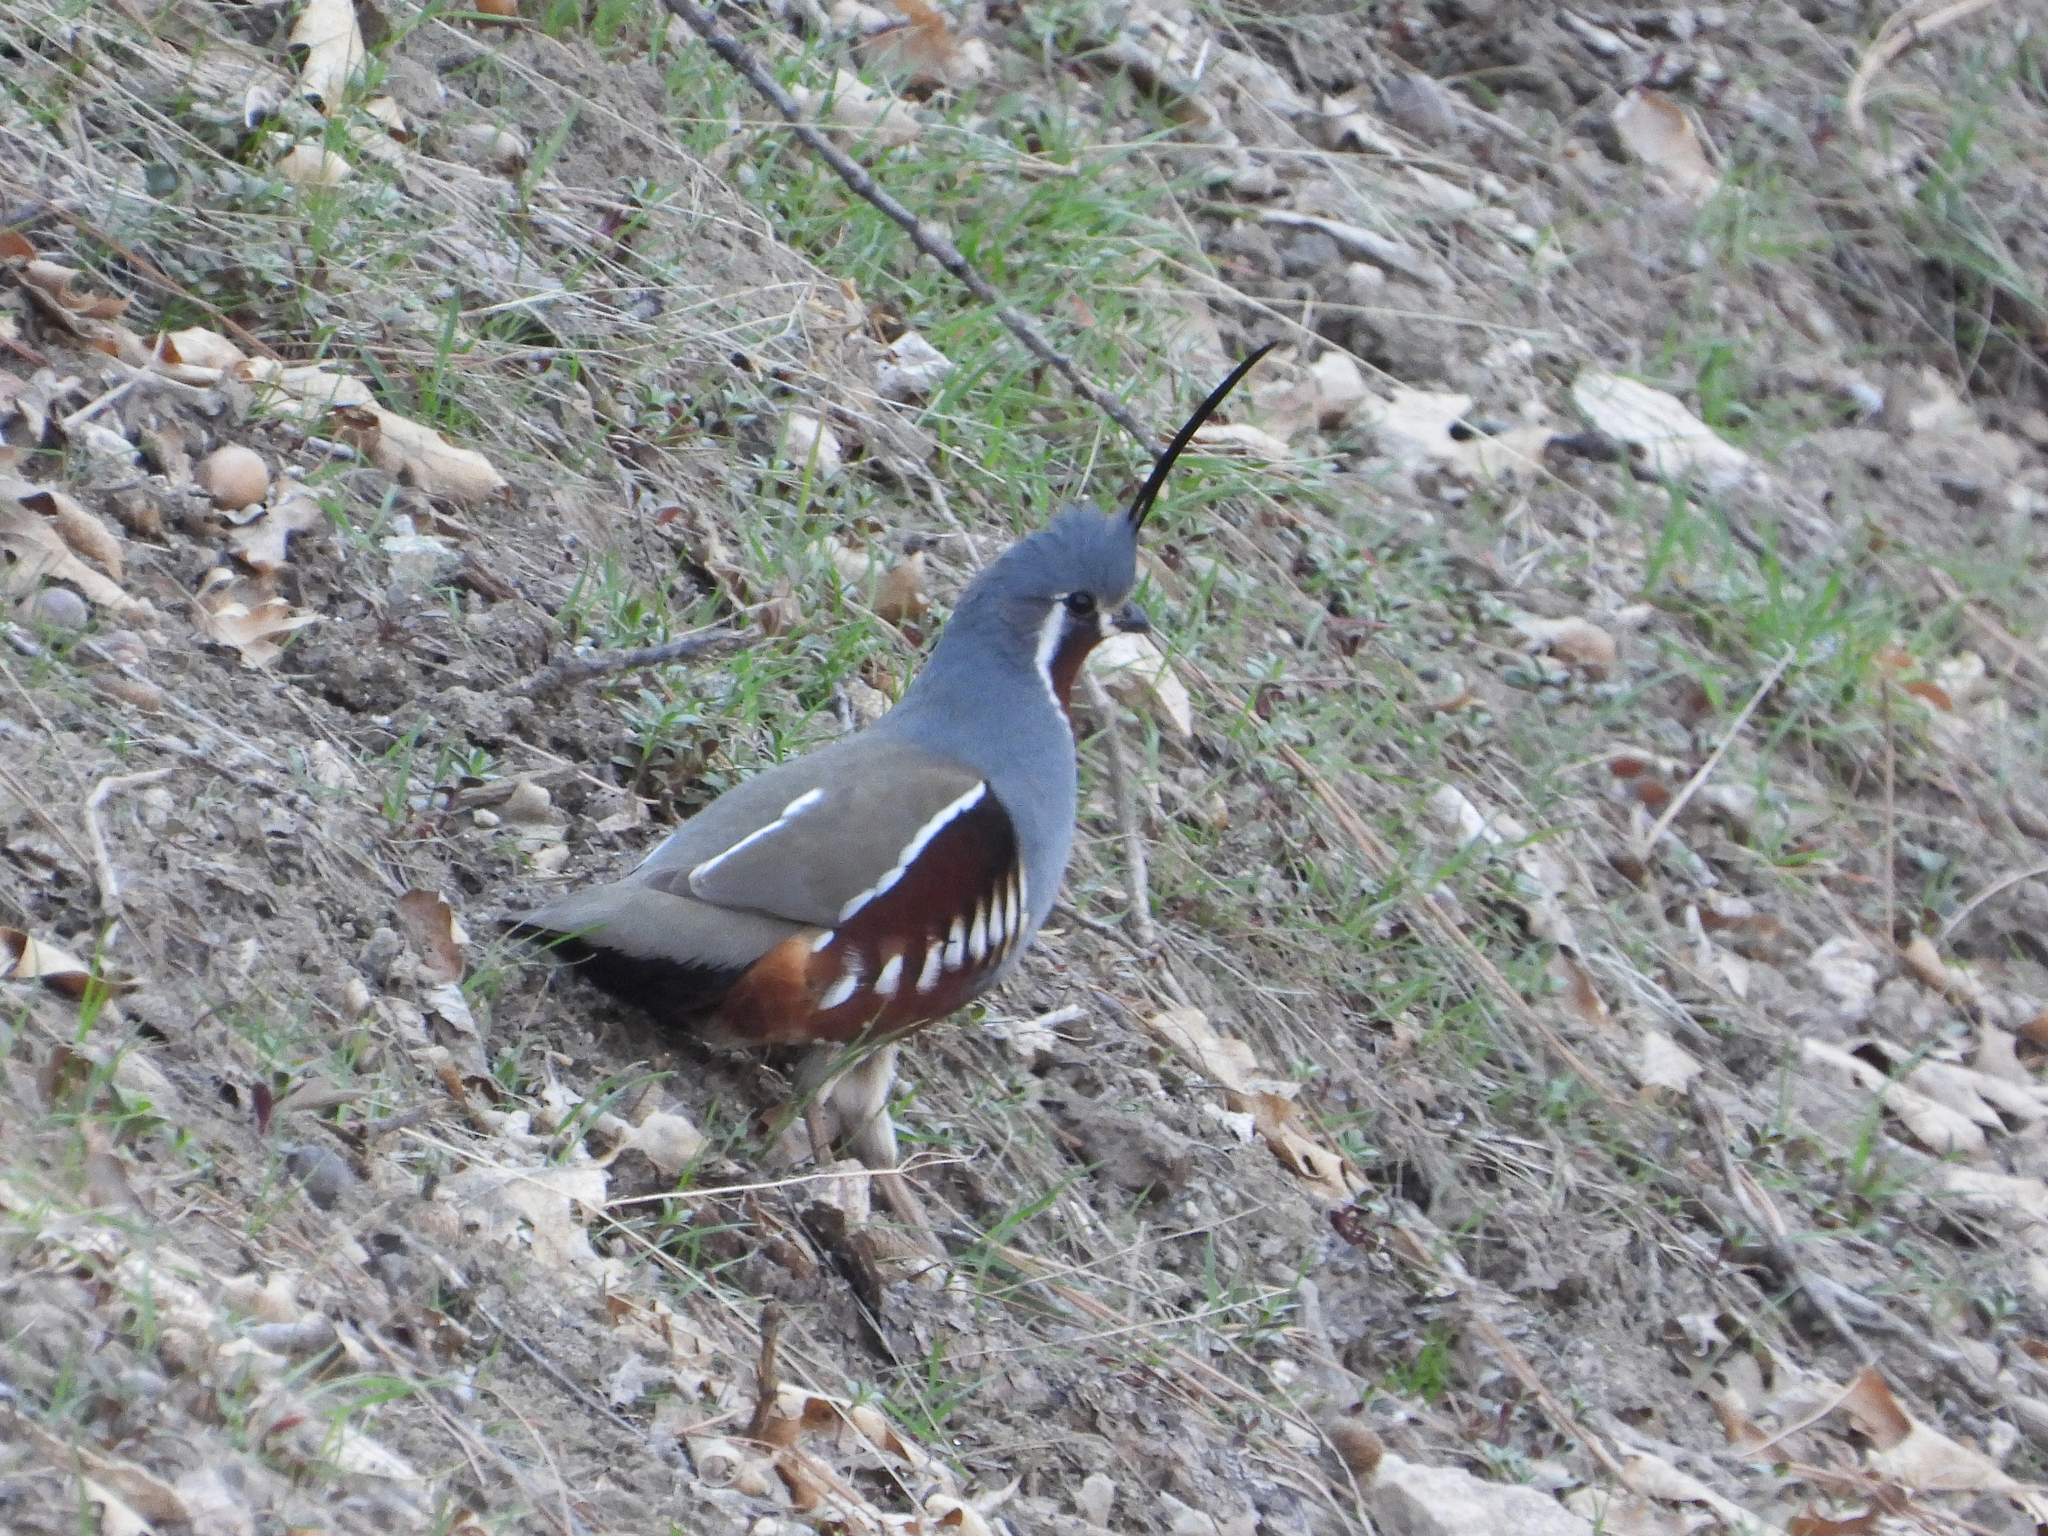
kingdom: Animalia
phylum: Chordata
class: Aves
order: Galliformes
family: Odontophoridae
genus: Oreortyx
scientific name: Oreortyx pictus
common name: Mountain quail
